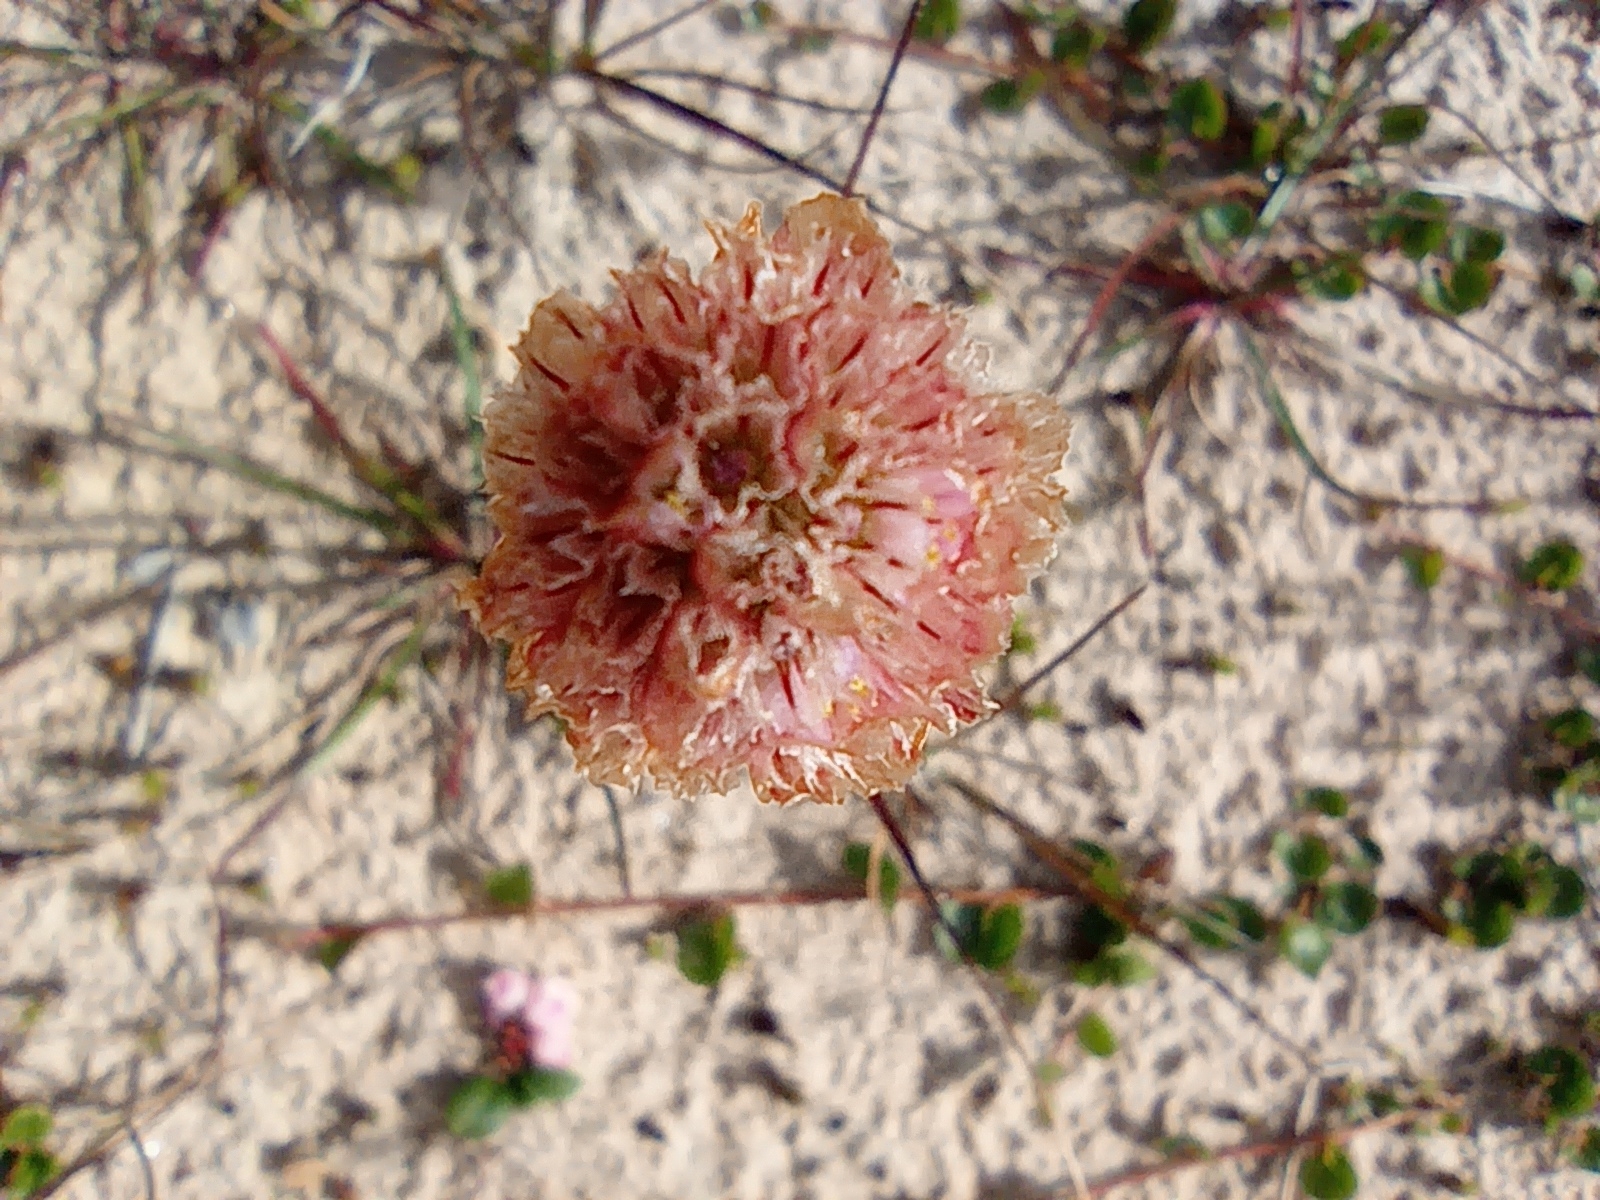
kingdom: Plantae
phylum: Tracheophyta
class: Magnoliopsida
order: Caryophyllales
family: Plumbaginaceae
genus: Armeria
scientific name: Armeria maritima
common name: Thrift
